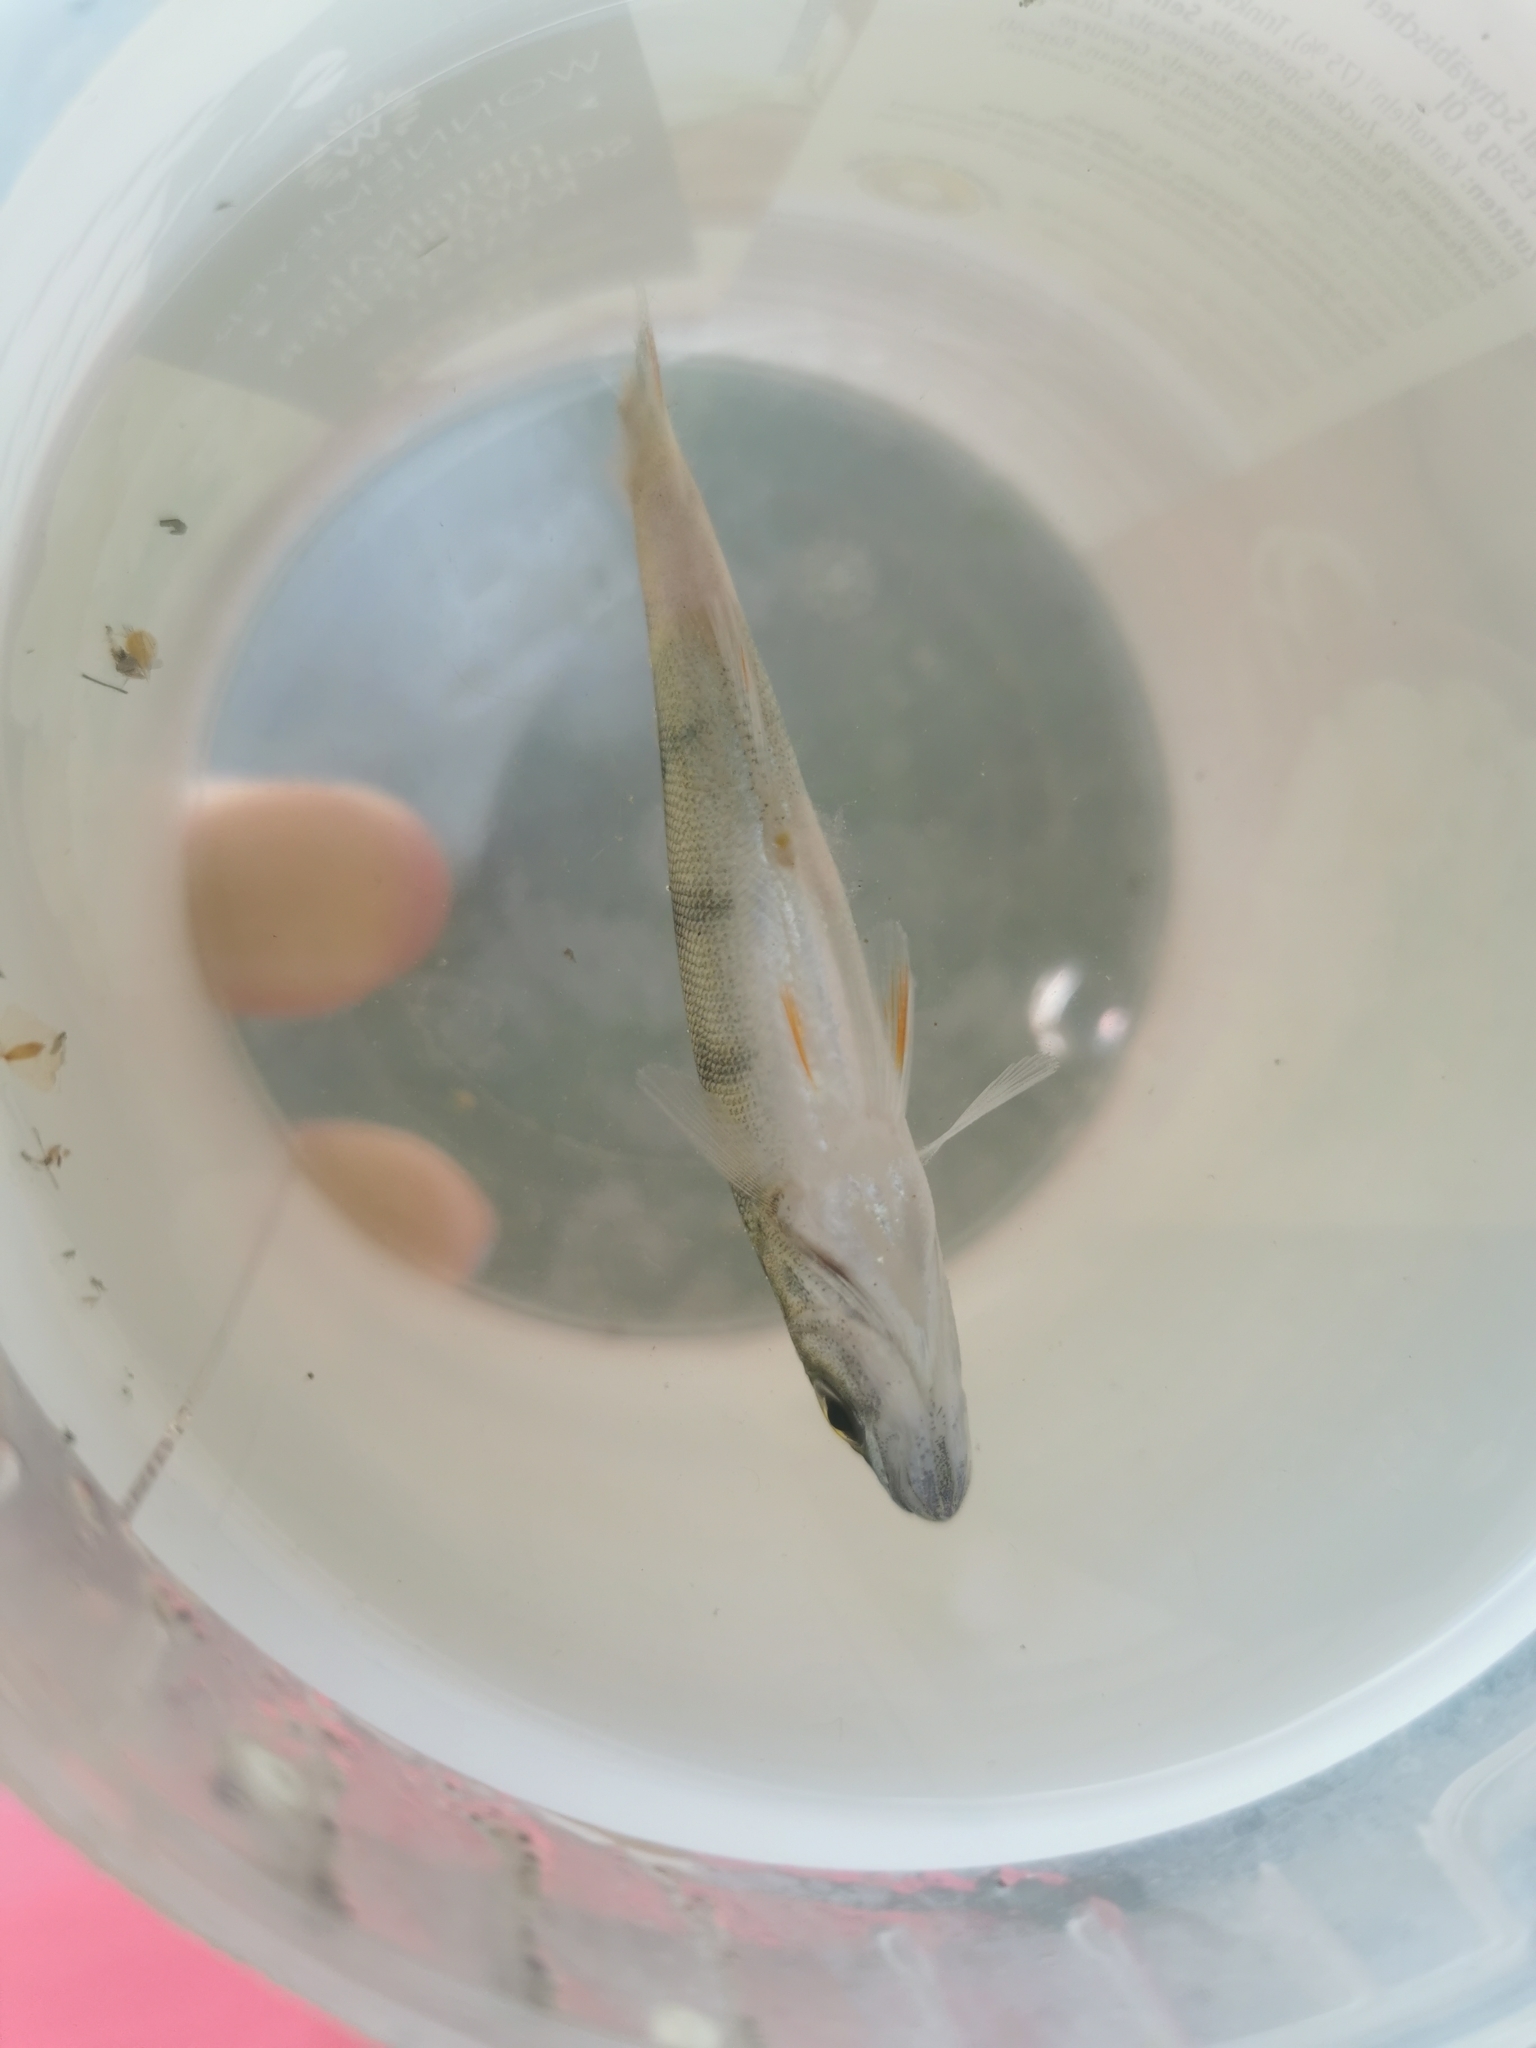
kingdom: Animalia
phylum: Chordata
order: Perciformes
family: Percidae
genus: Perca
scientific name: Perca fluviatilis
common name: Perch
